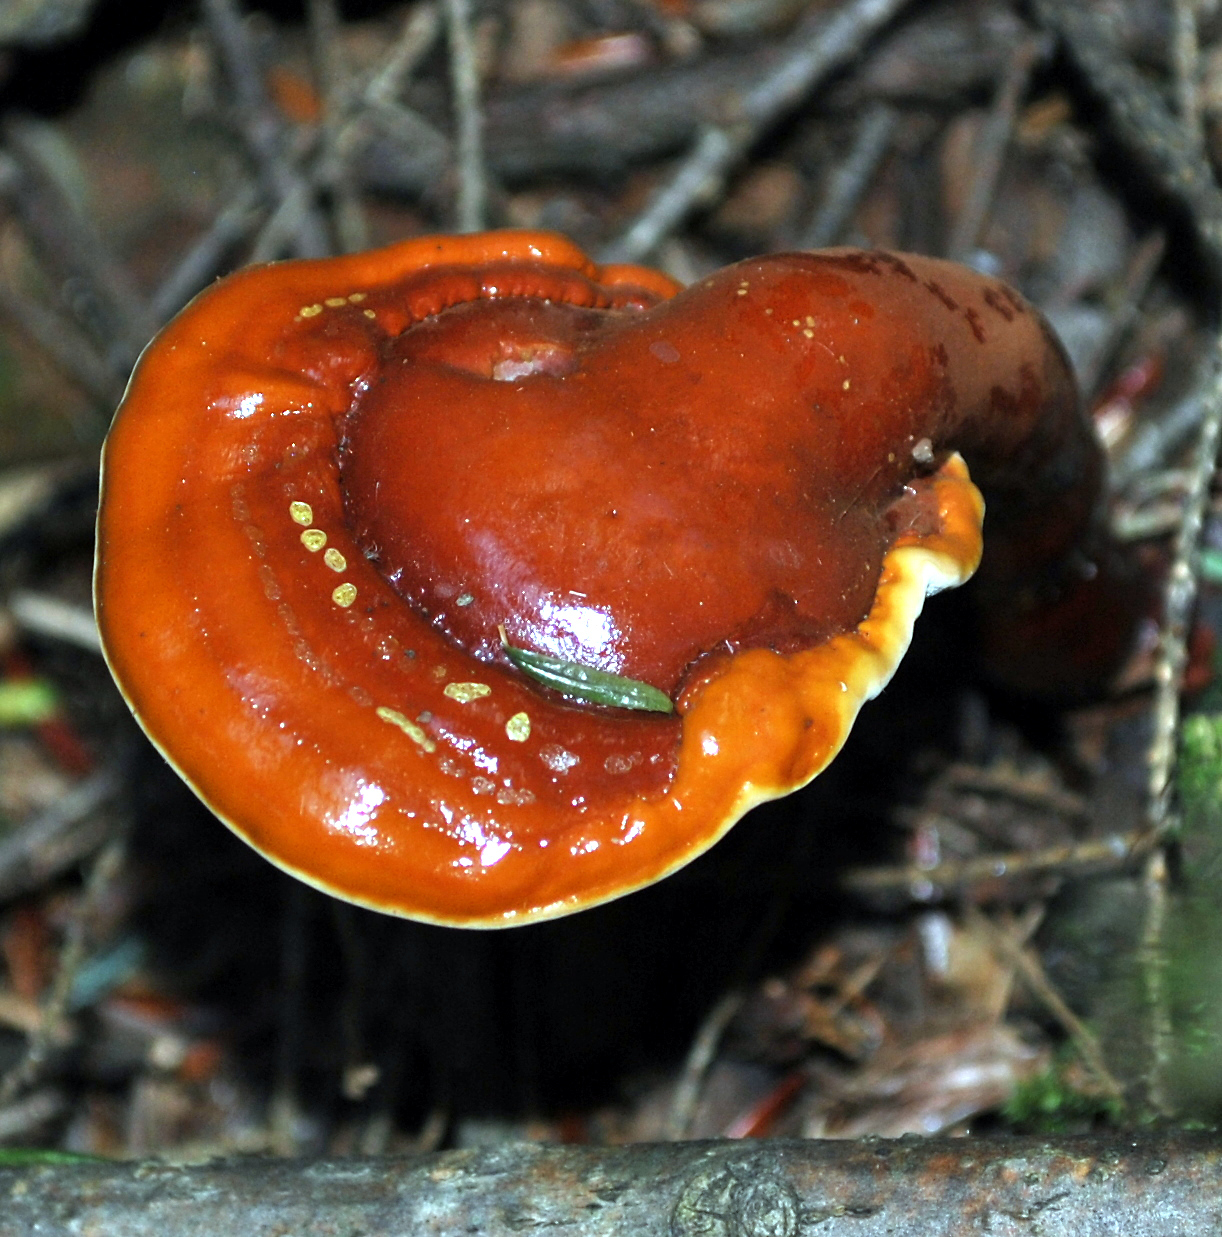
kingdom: Fungi
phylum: Basidiomycota
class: Agaricomycetes
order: Polyporales
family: Polyporaceae
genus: Ganoderma
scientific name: Ganoderma tsugae
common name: Hemlock varnish shelf
